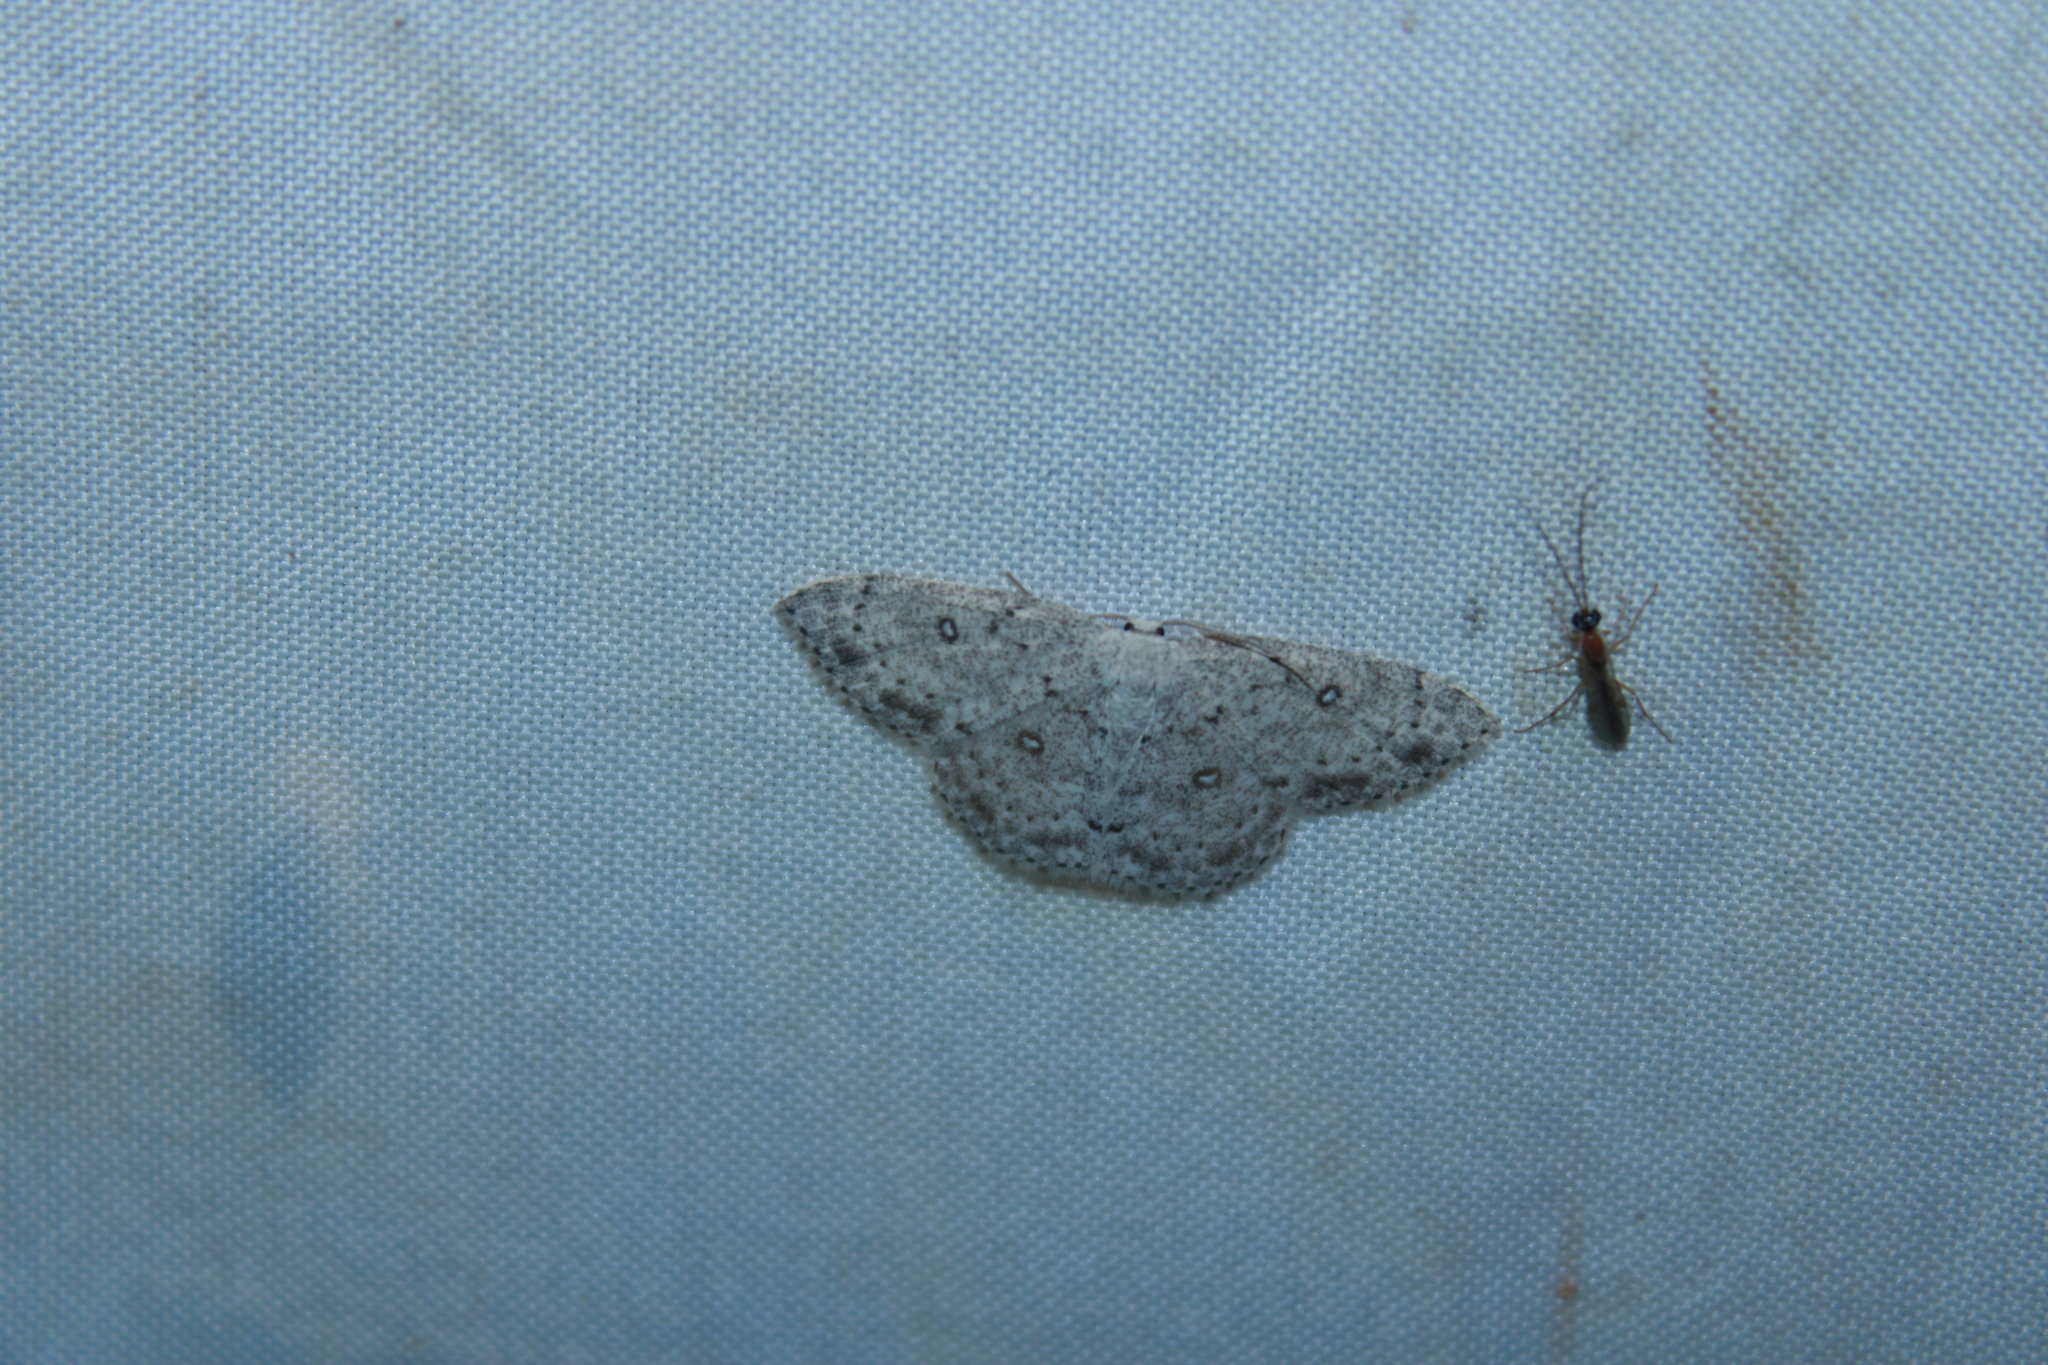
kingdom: Animalia
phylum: Arthropoda
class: Insecta
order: Lepidoptera
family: Geometridae
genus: Cyclophora
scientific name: Cyclophora pendulinaria
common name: Sweet fern geometer
